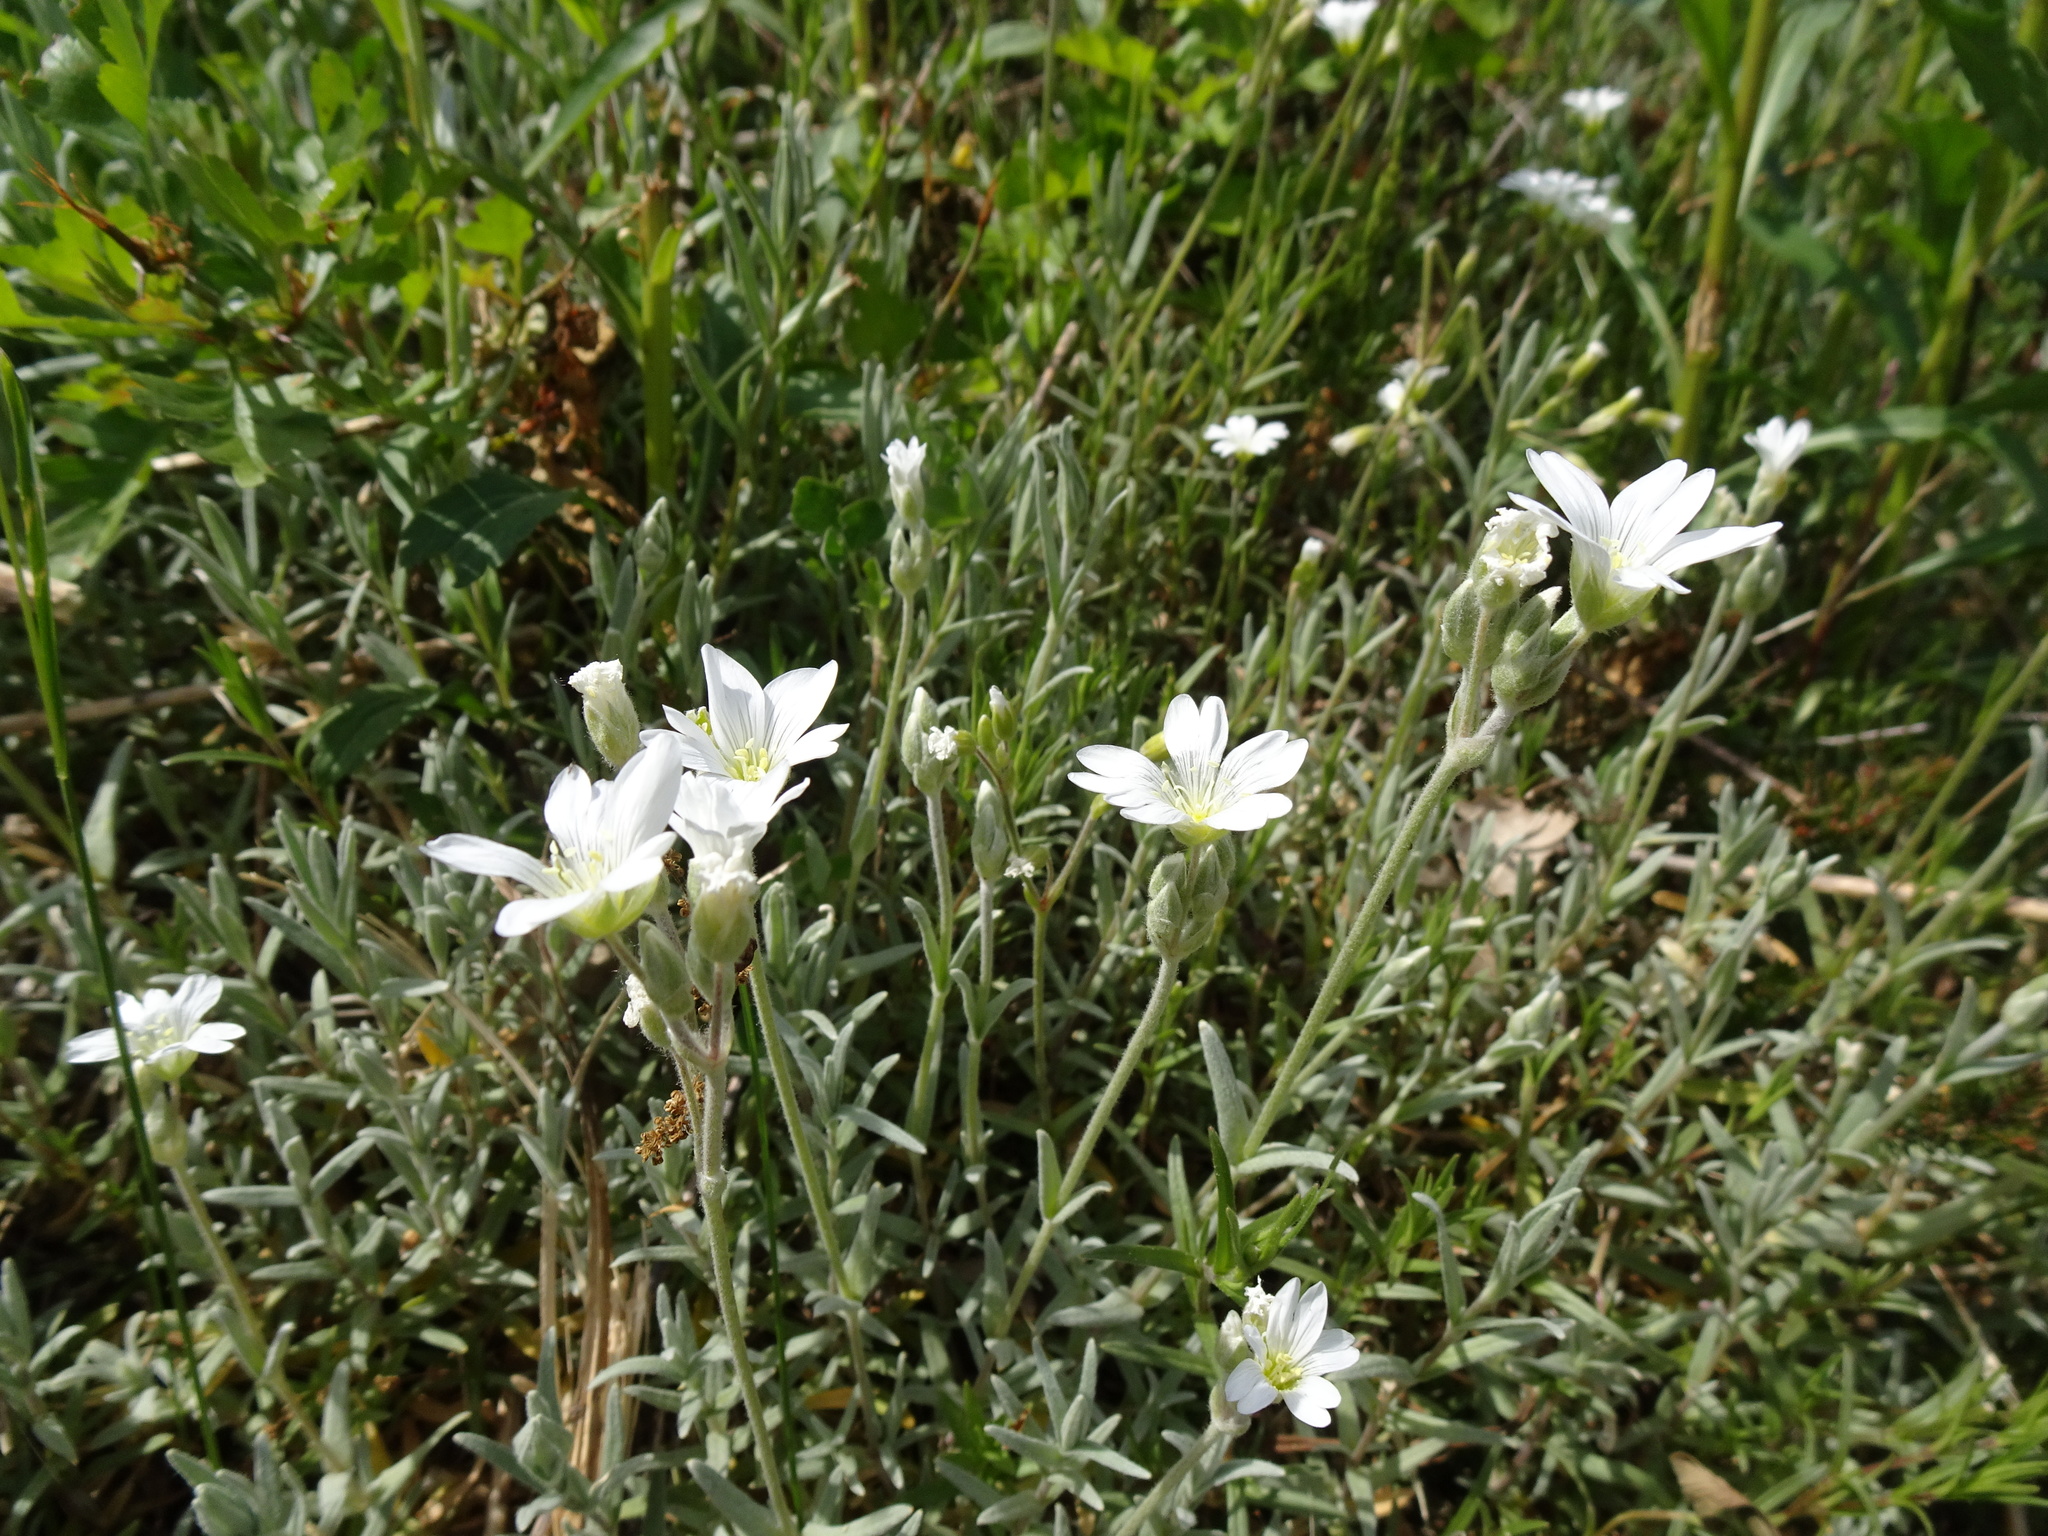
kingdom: Plantae
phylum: Tracheophyta
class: Magnoliopsida
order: Caryophyllales
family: Caryophyllaceae
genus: Cerastium
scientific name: Cerastium tomentosum
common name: Snow-in-summer
